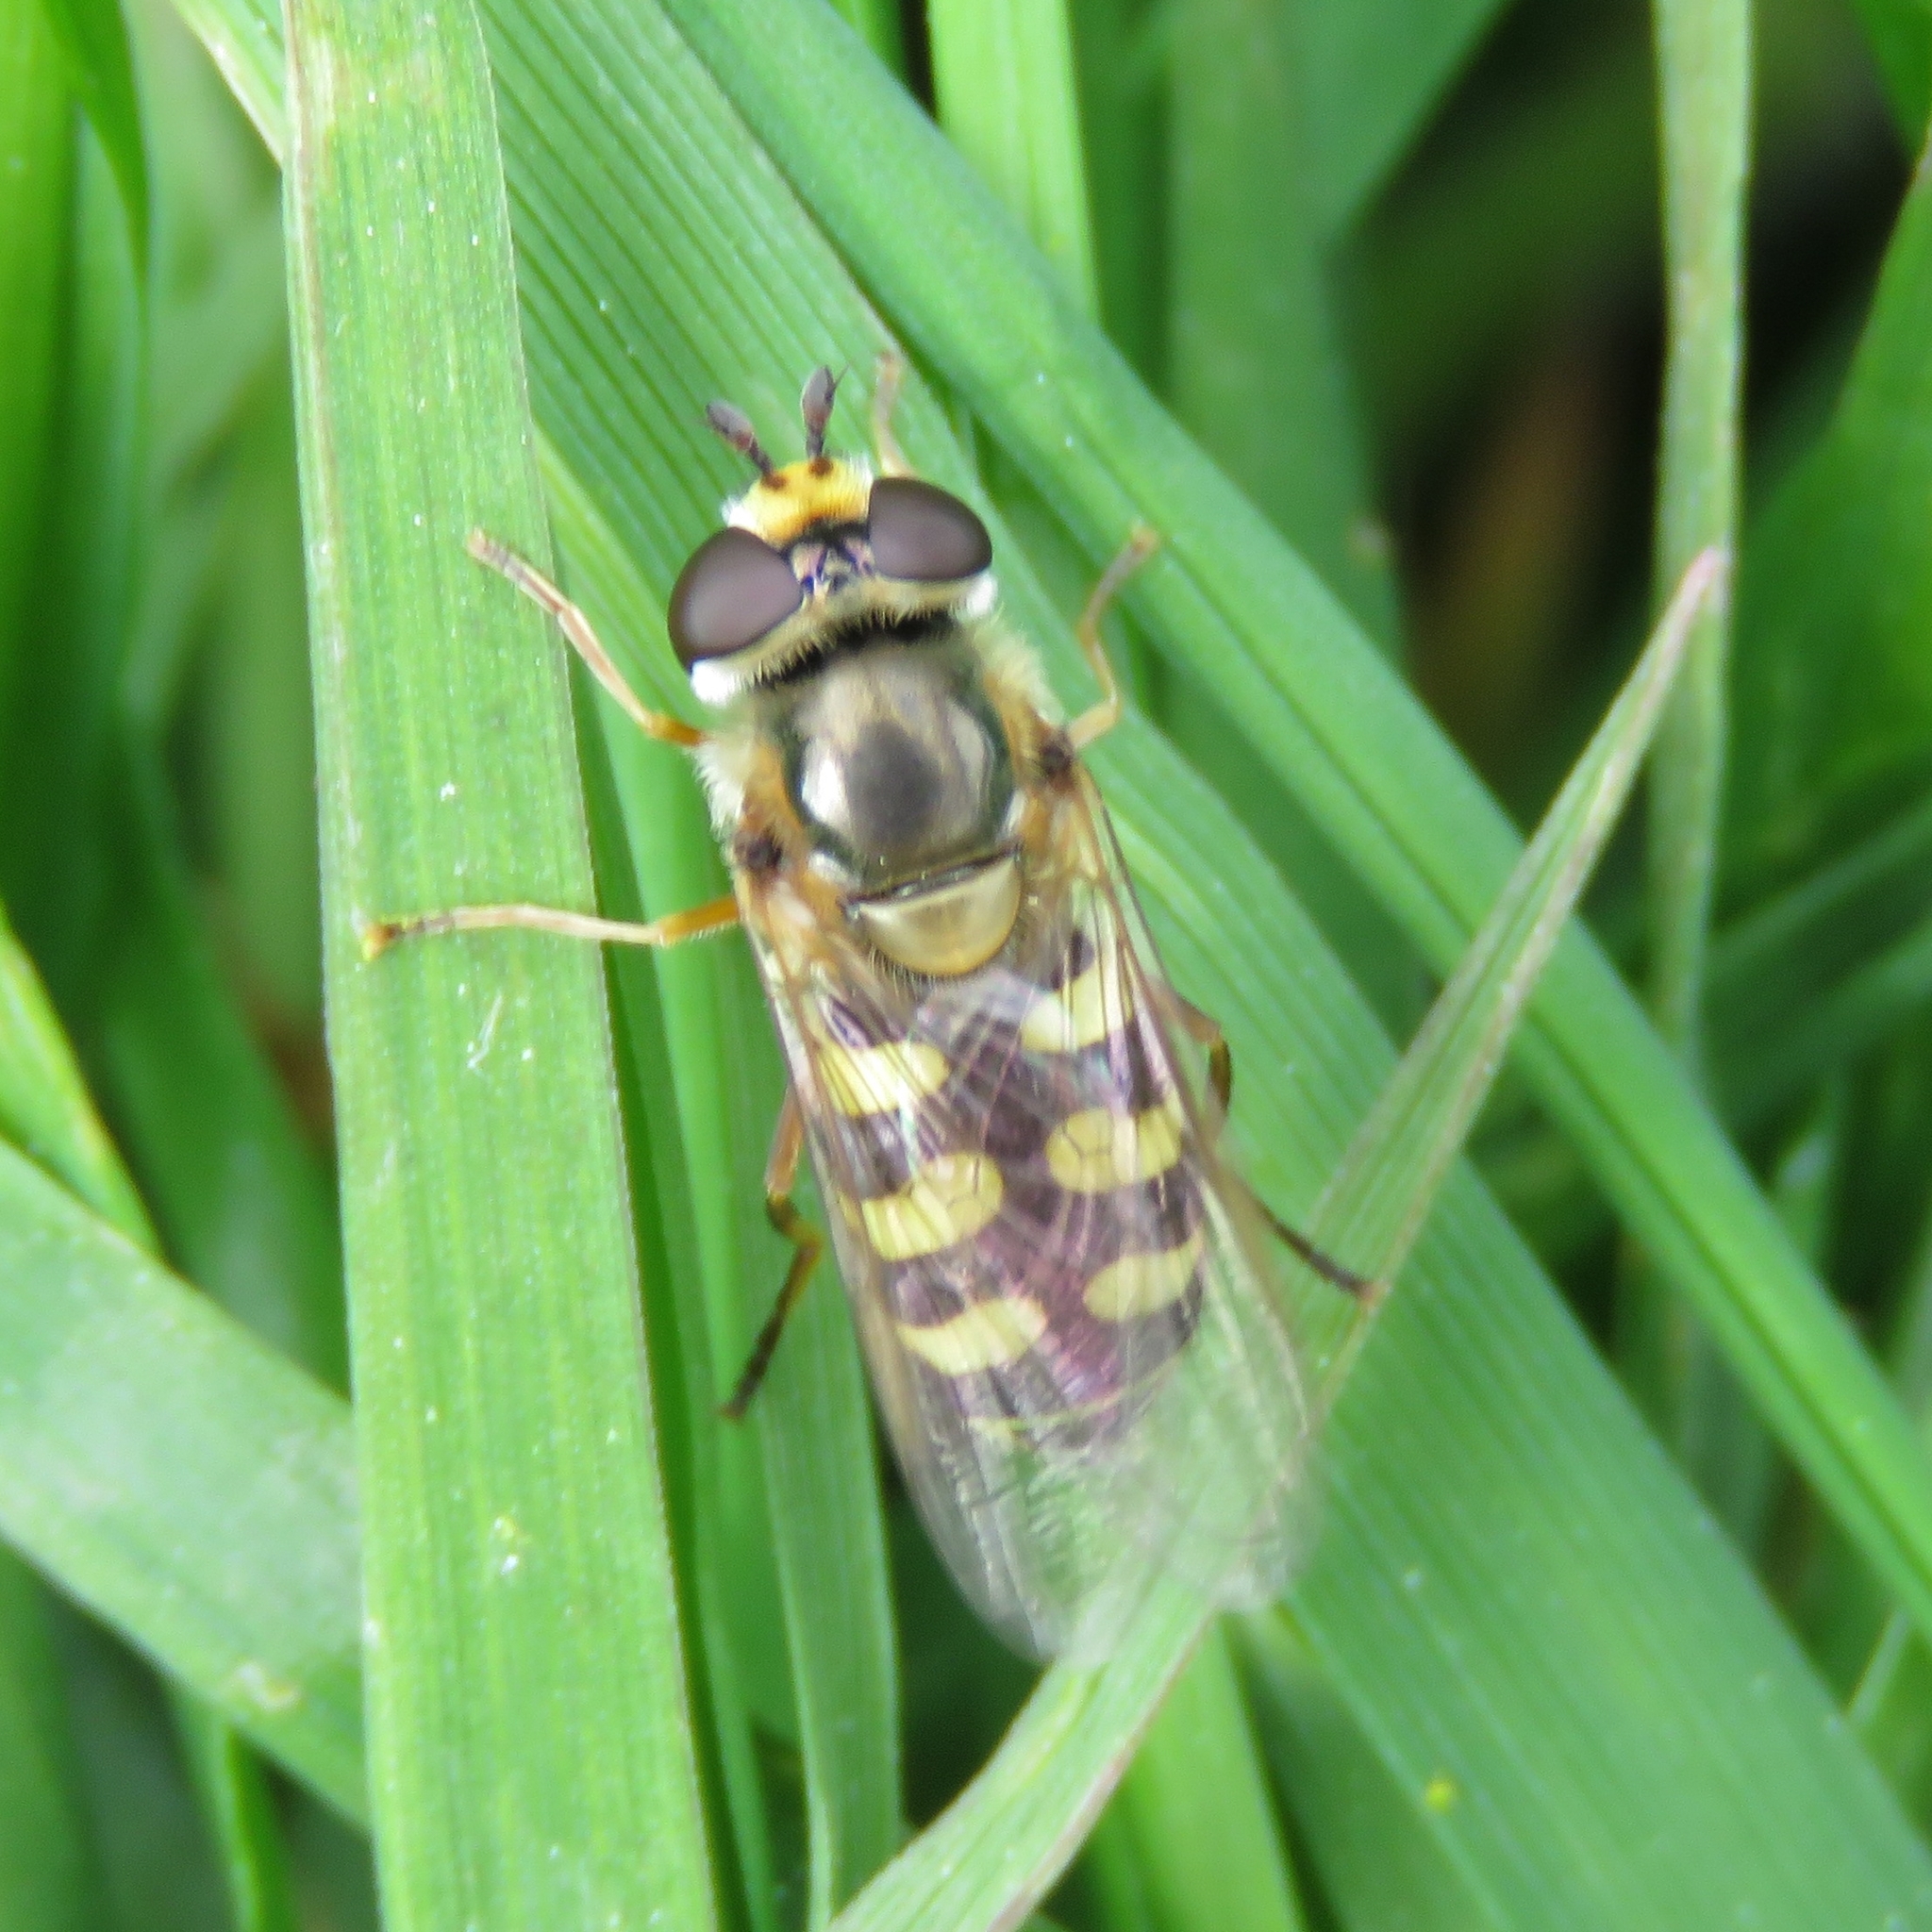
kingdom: Animalia
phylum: Arthropoda
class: Insecta
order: Diptera
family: Syrphidae
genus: Eupeodes
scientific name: Eupeodes corollae
